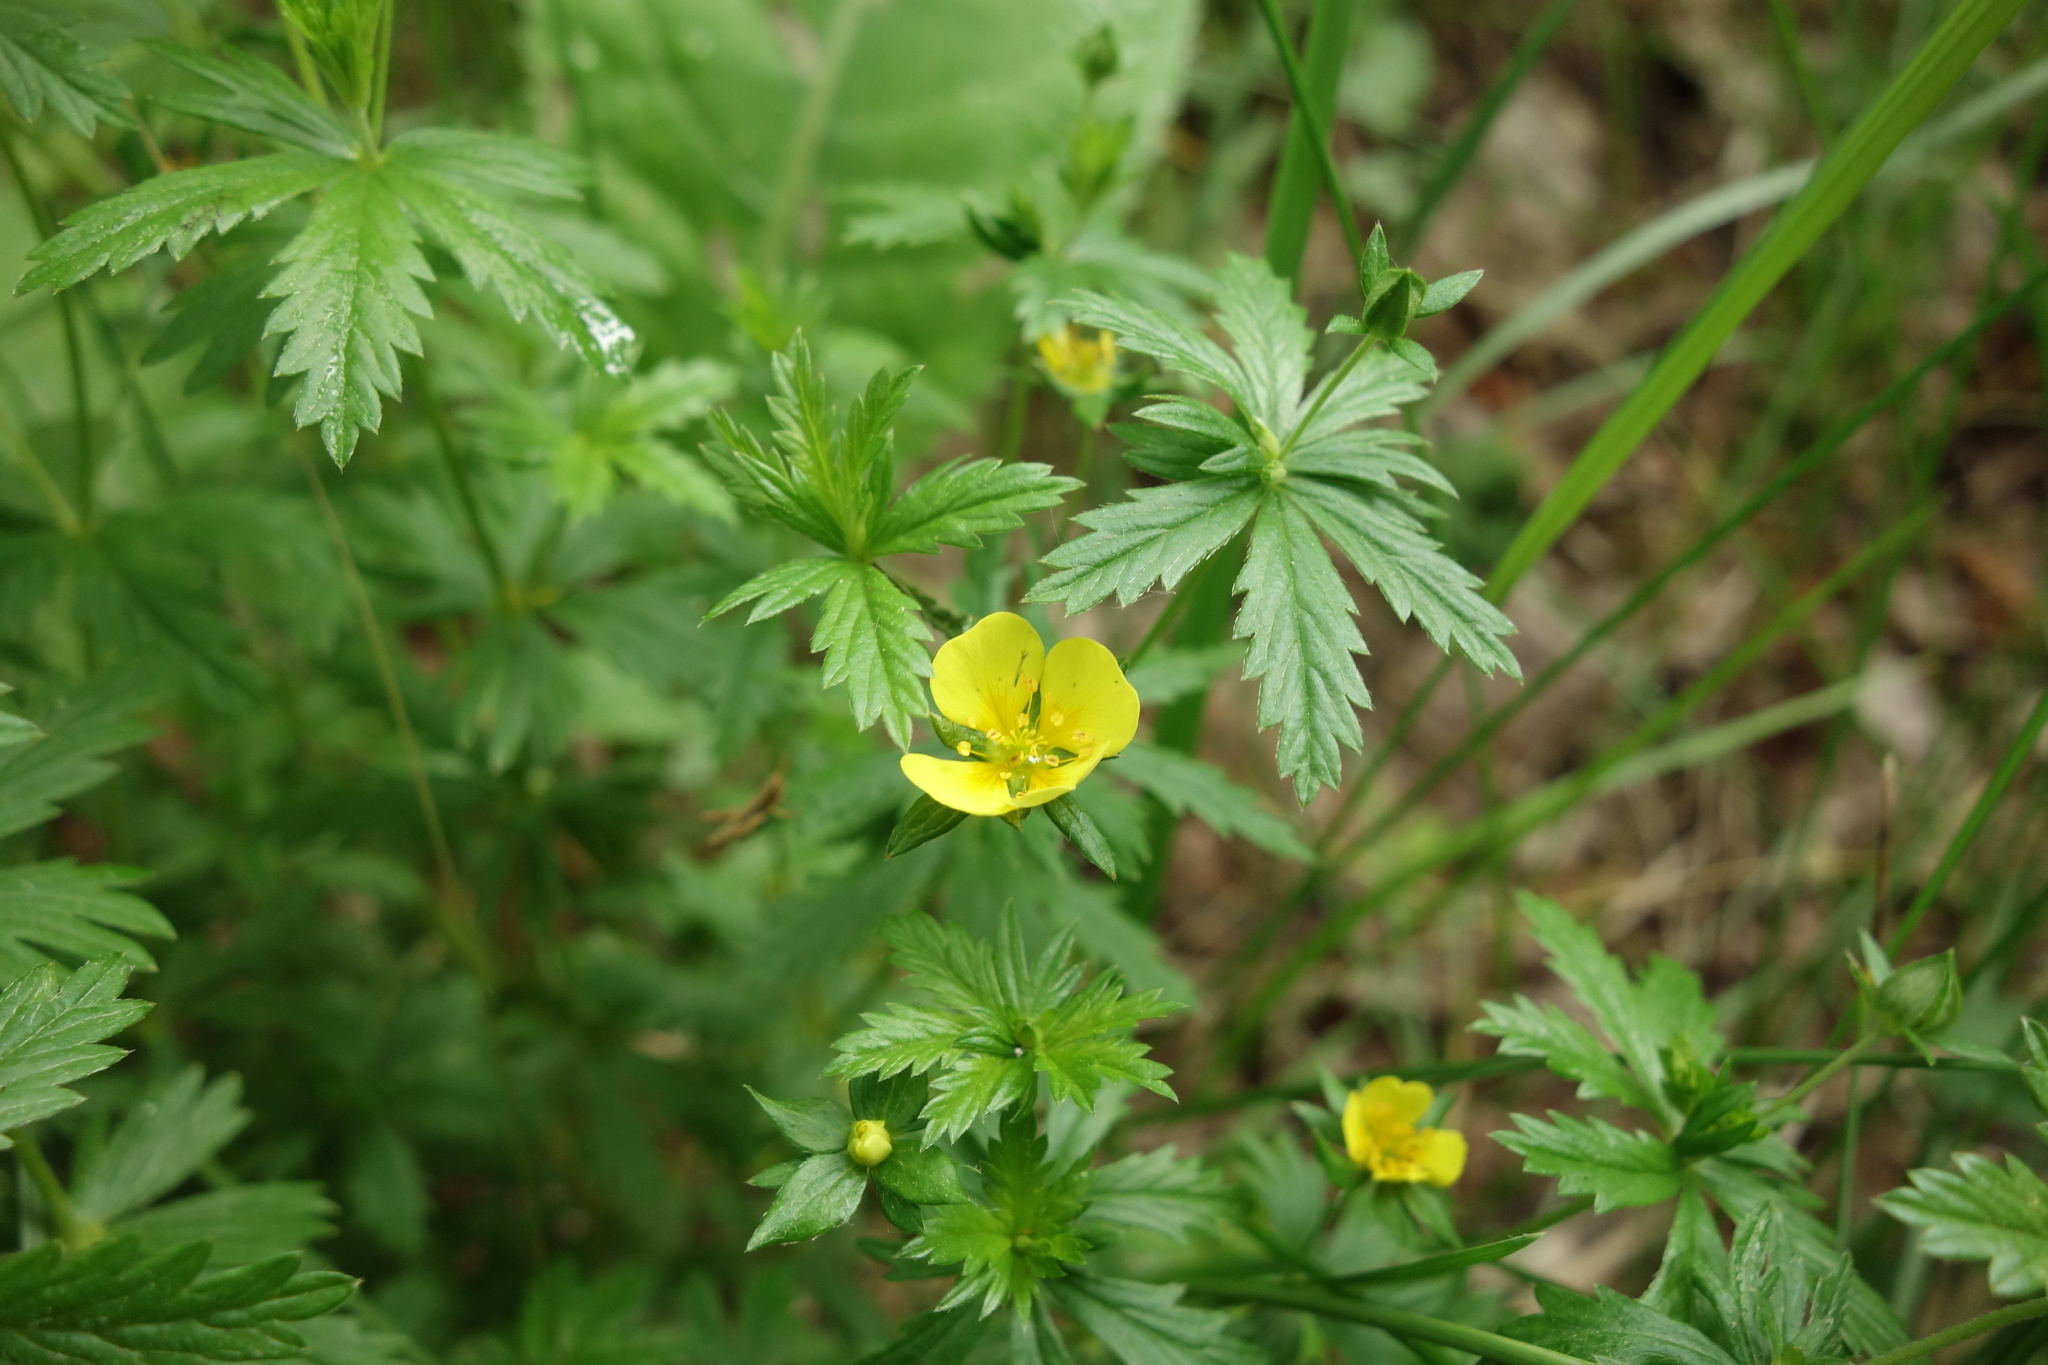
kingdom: Plantae
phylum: Tracheophyta
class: Magnoliopsida
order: Rosales
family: Rosaceae
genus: Potentilla
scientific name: Potentilla erecta
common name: Tormentil
